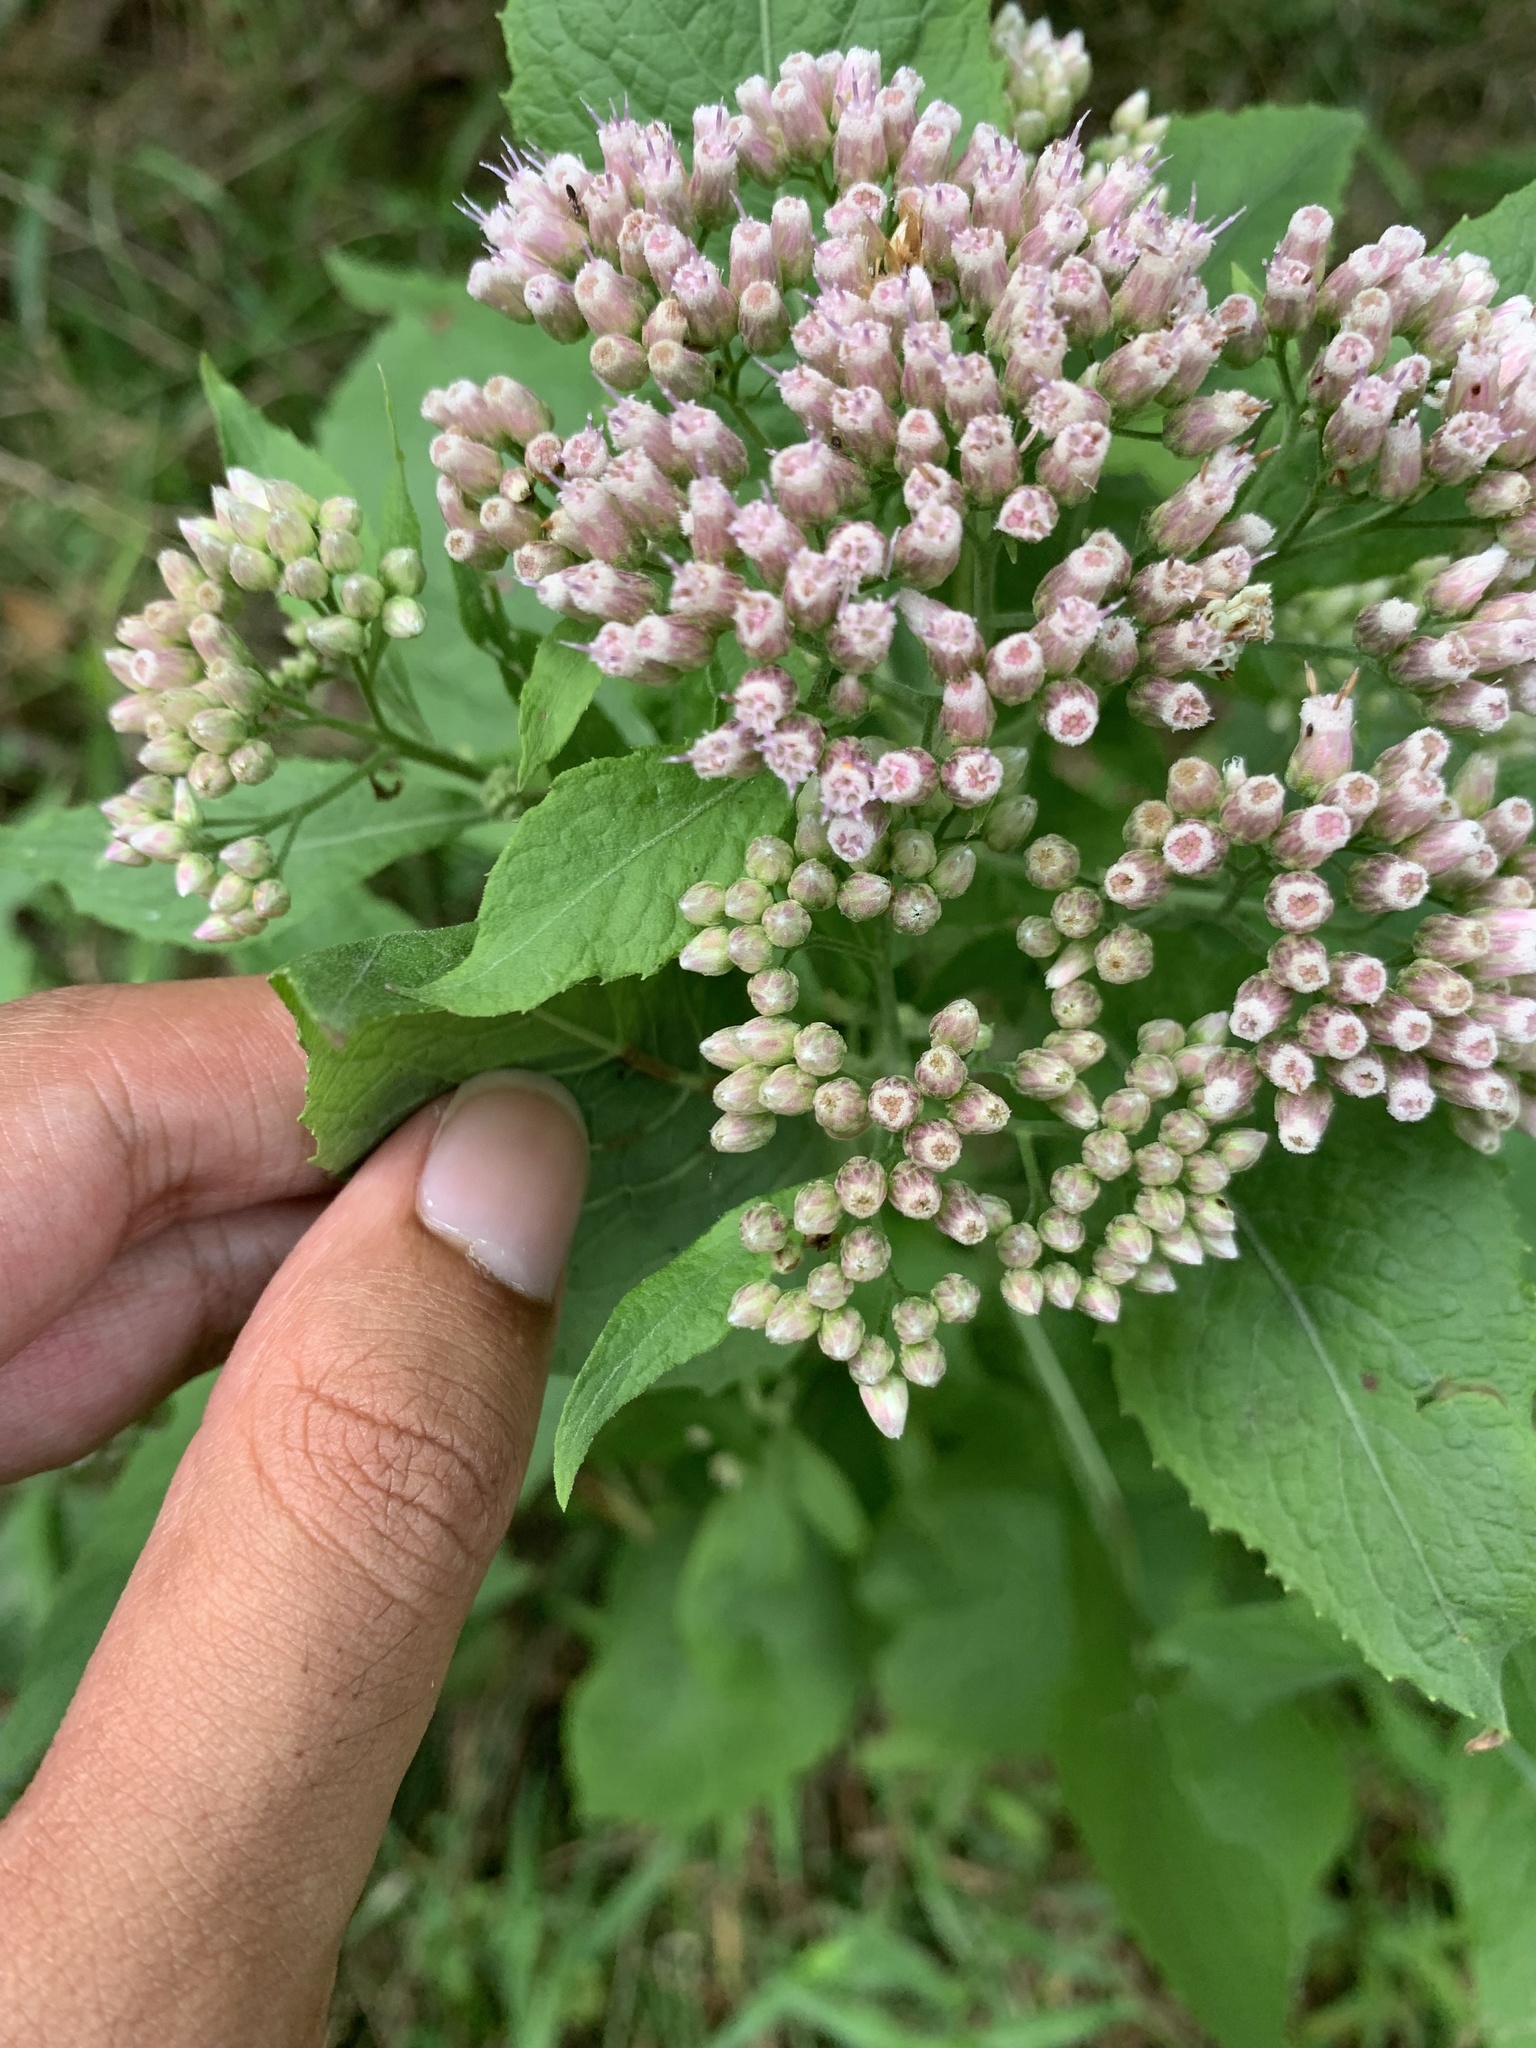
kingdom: Plantae
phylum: Tracheophyta
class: Magnoliopsida
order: Asterales
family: Asteraceae
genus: Pluchea
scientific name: Pluchea camphorata
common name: Camphor pluchea
